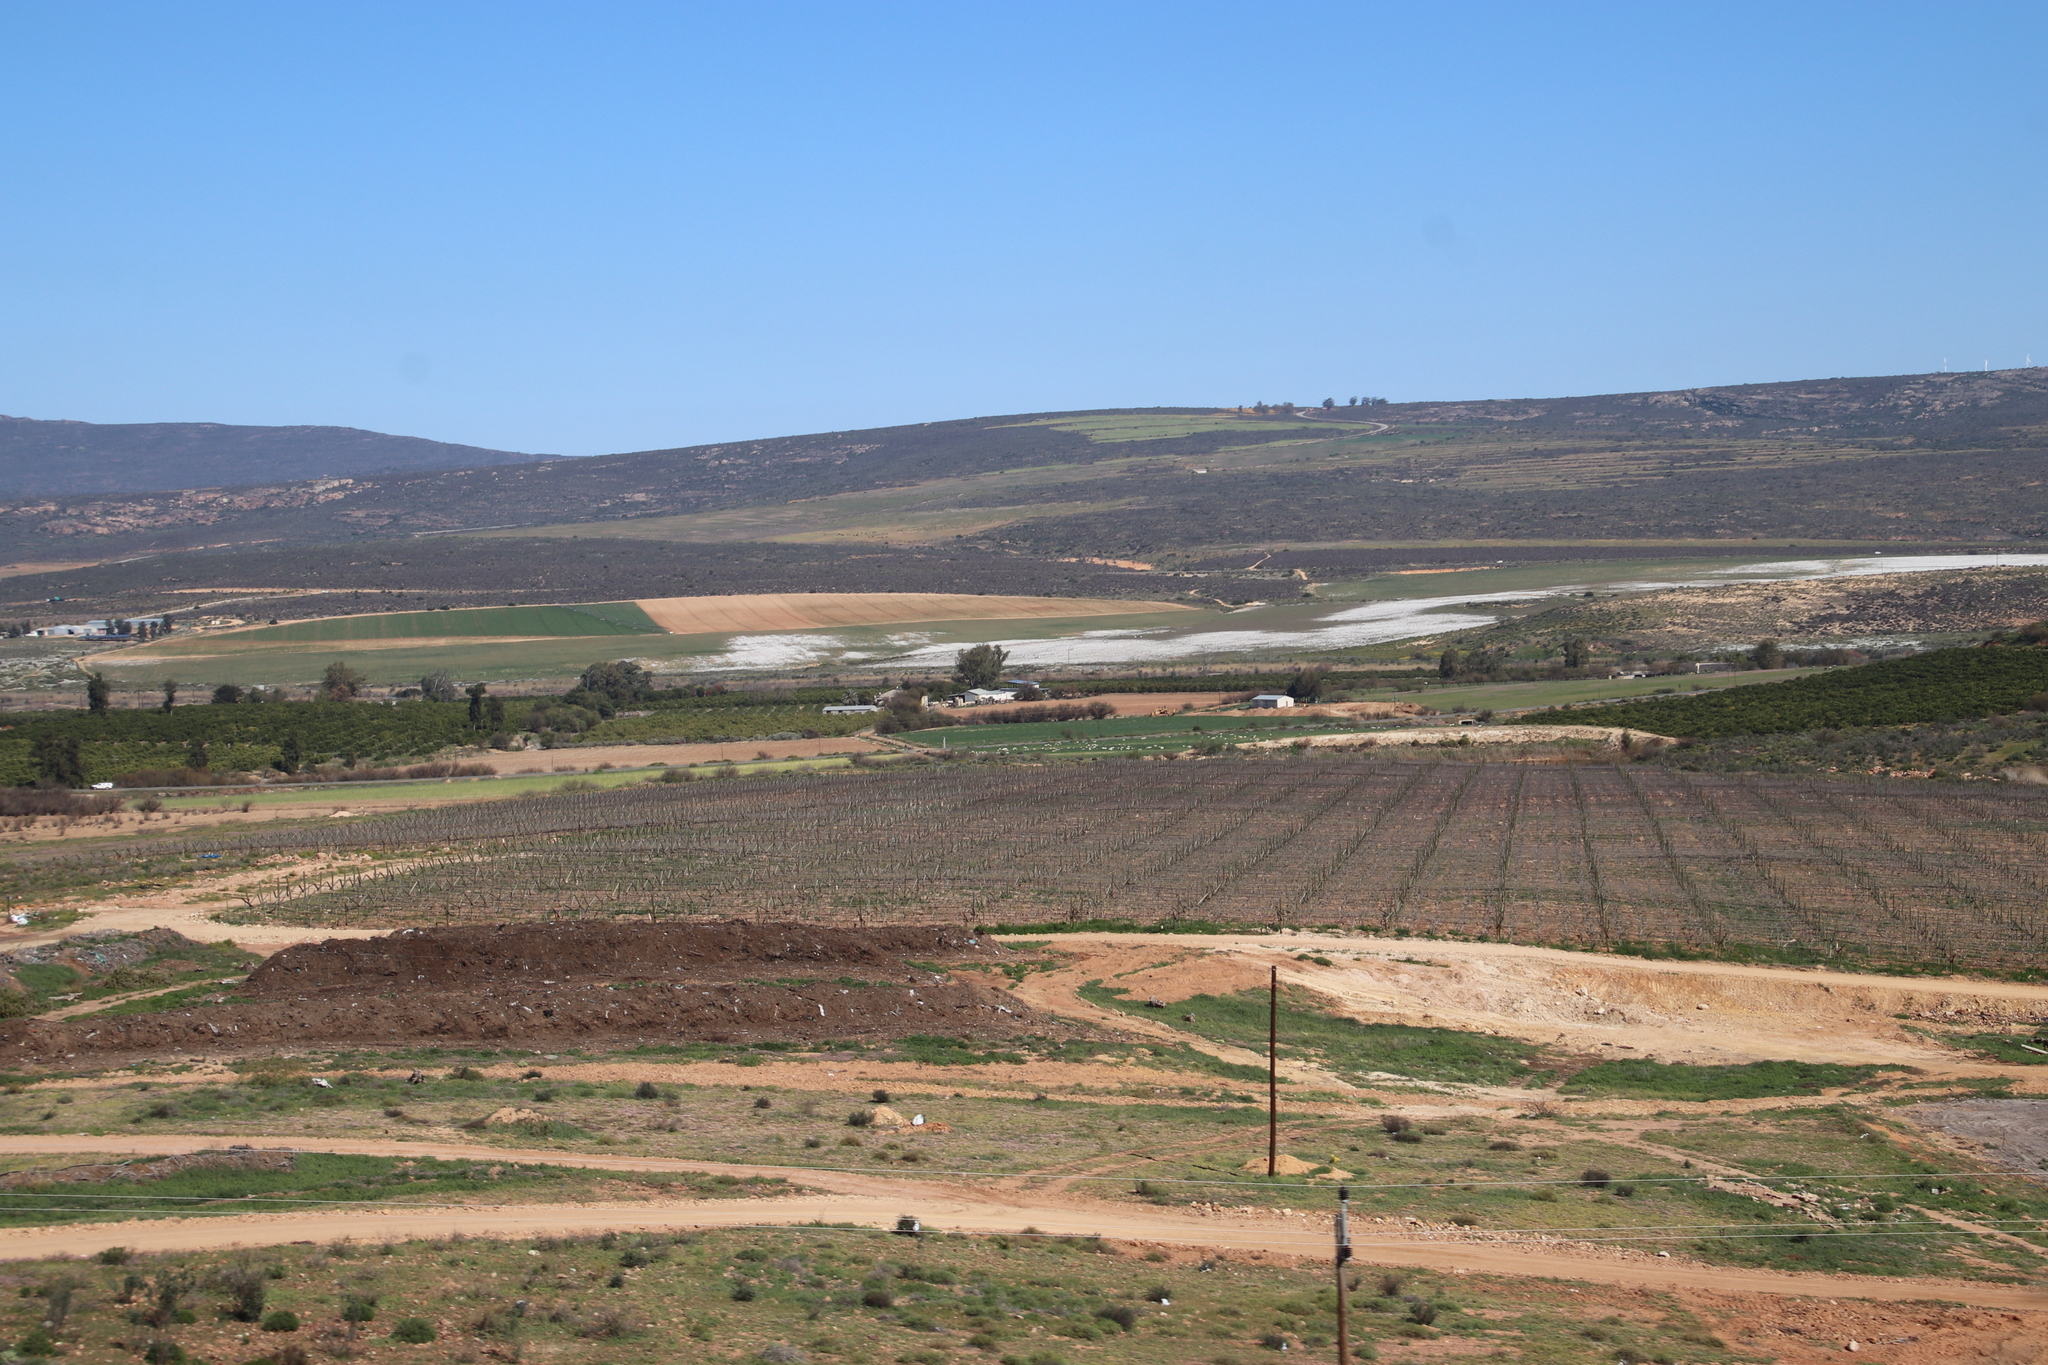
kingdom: Plantae
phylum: Tracheophyta
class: Magnoliopsida
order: Asterales
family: Asteraceae
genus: Dimorphotheca
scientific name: Dimorphotheca pluvialis
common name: Weather prophet
